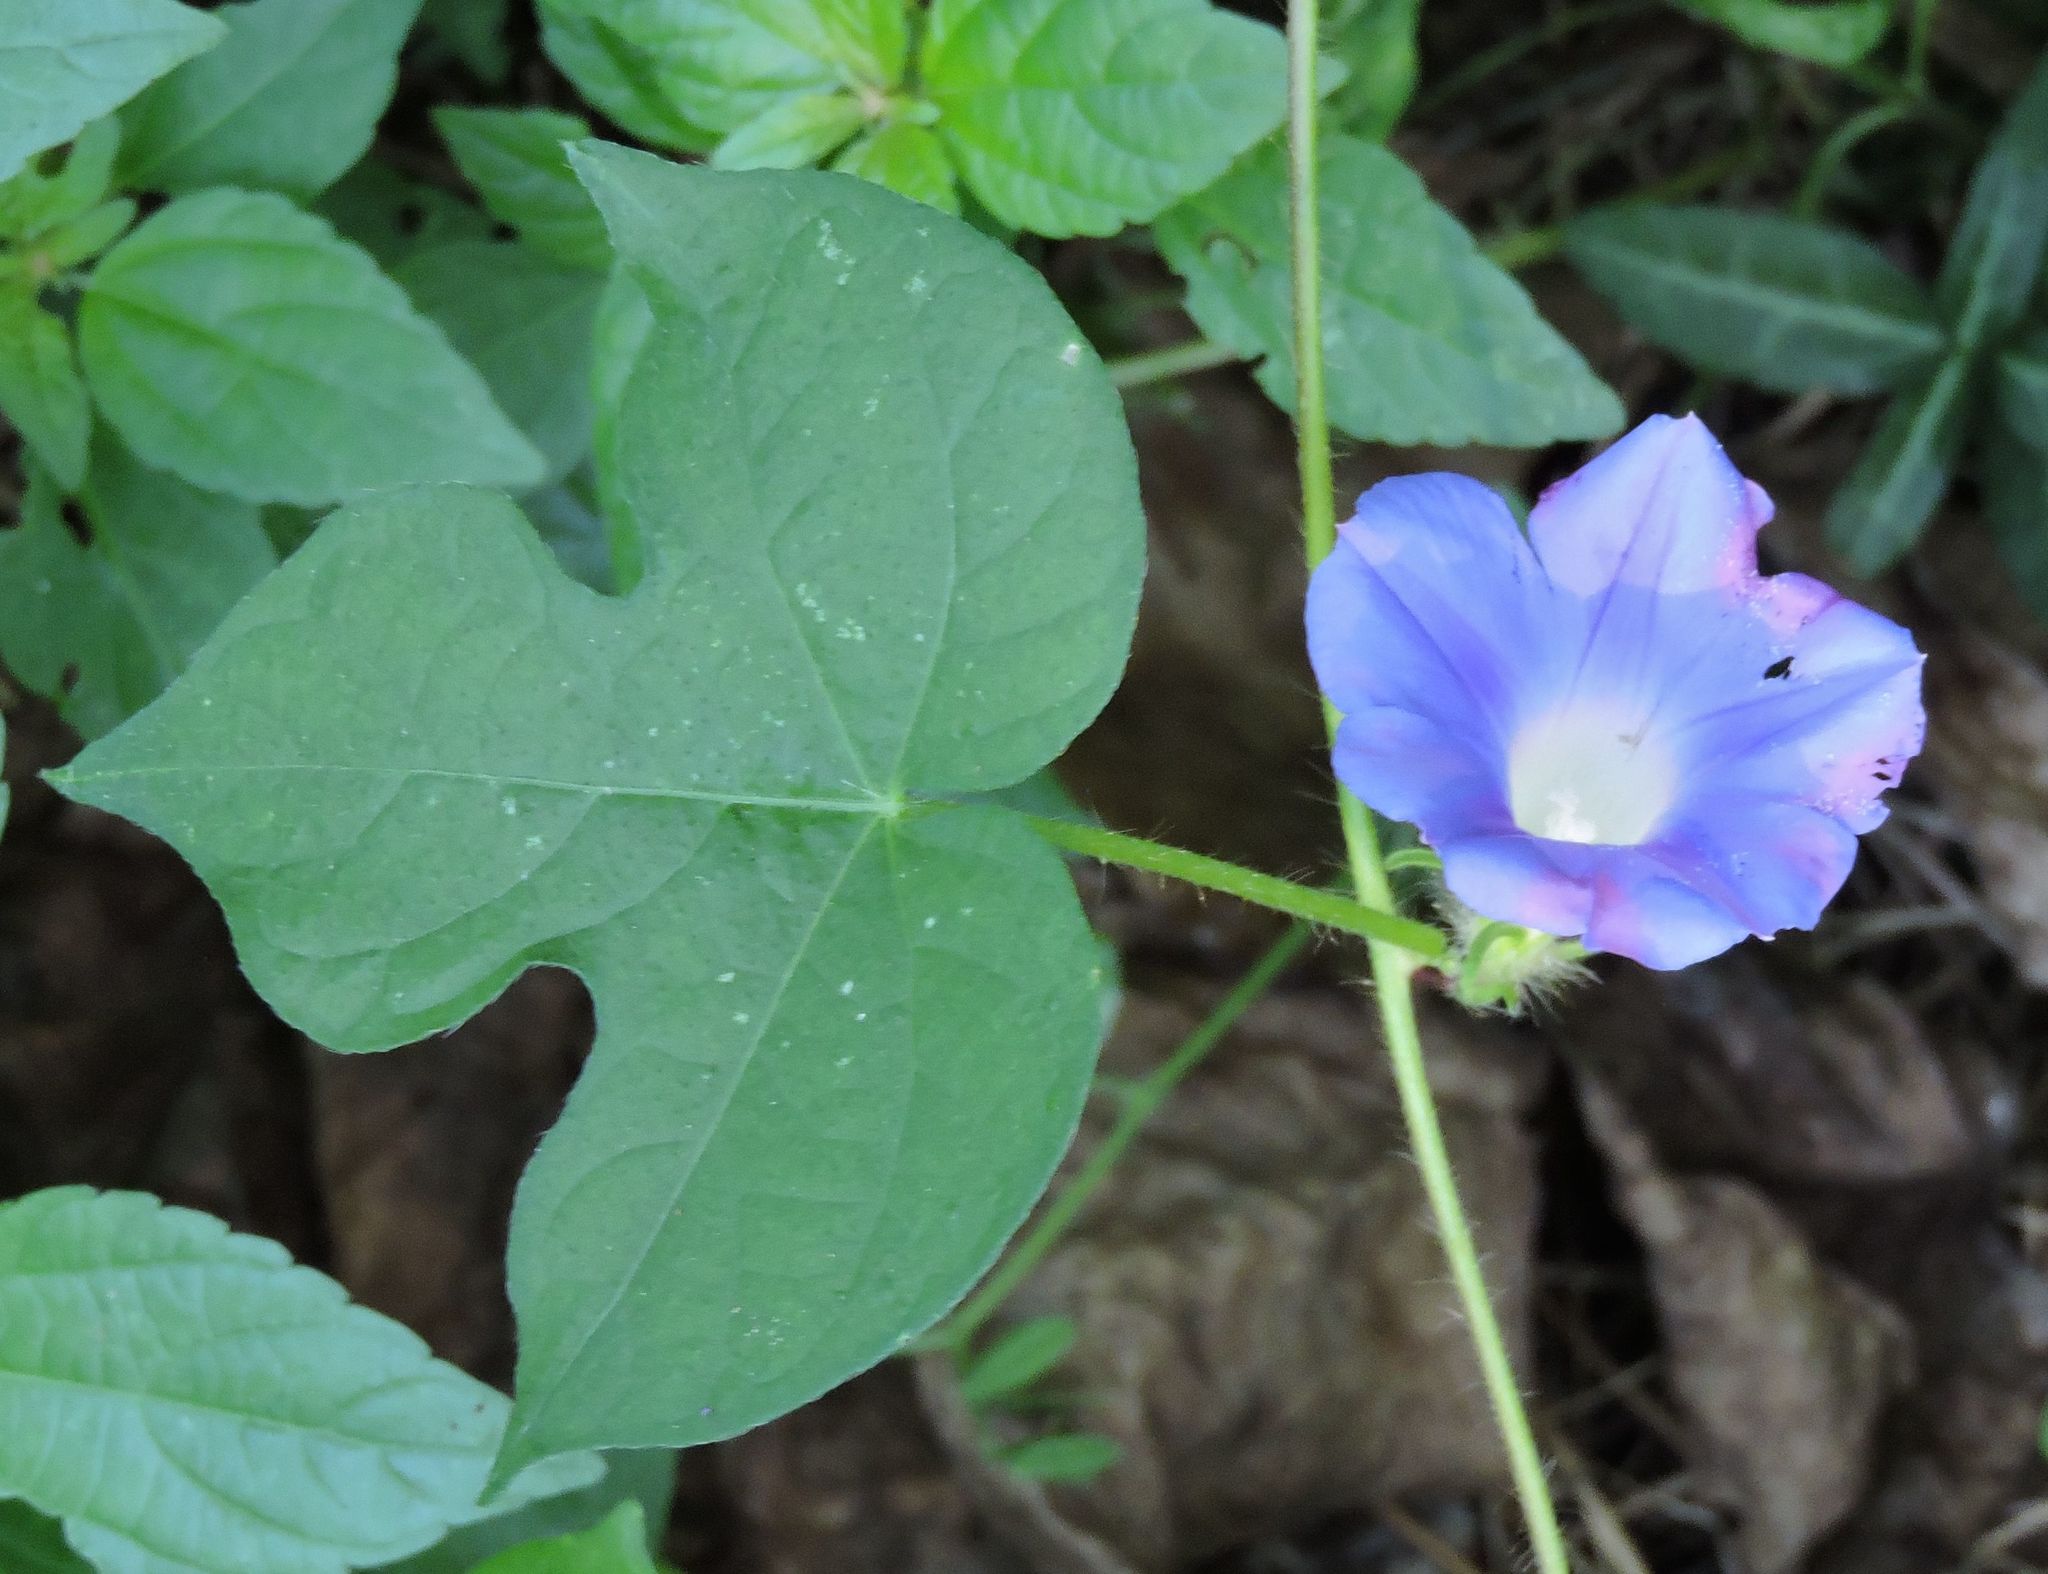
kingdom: Plantae
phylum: Tracheophyta
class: Magnoliopsida
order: Solanales
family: Convolvulaceae
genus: Ipomoea
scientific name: Ipomoea hederacea
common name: Ivy-leaved morning-glory
